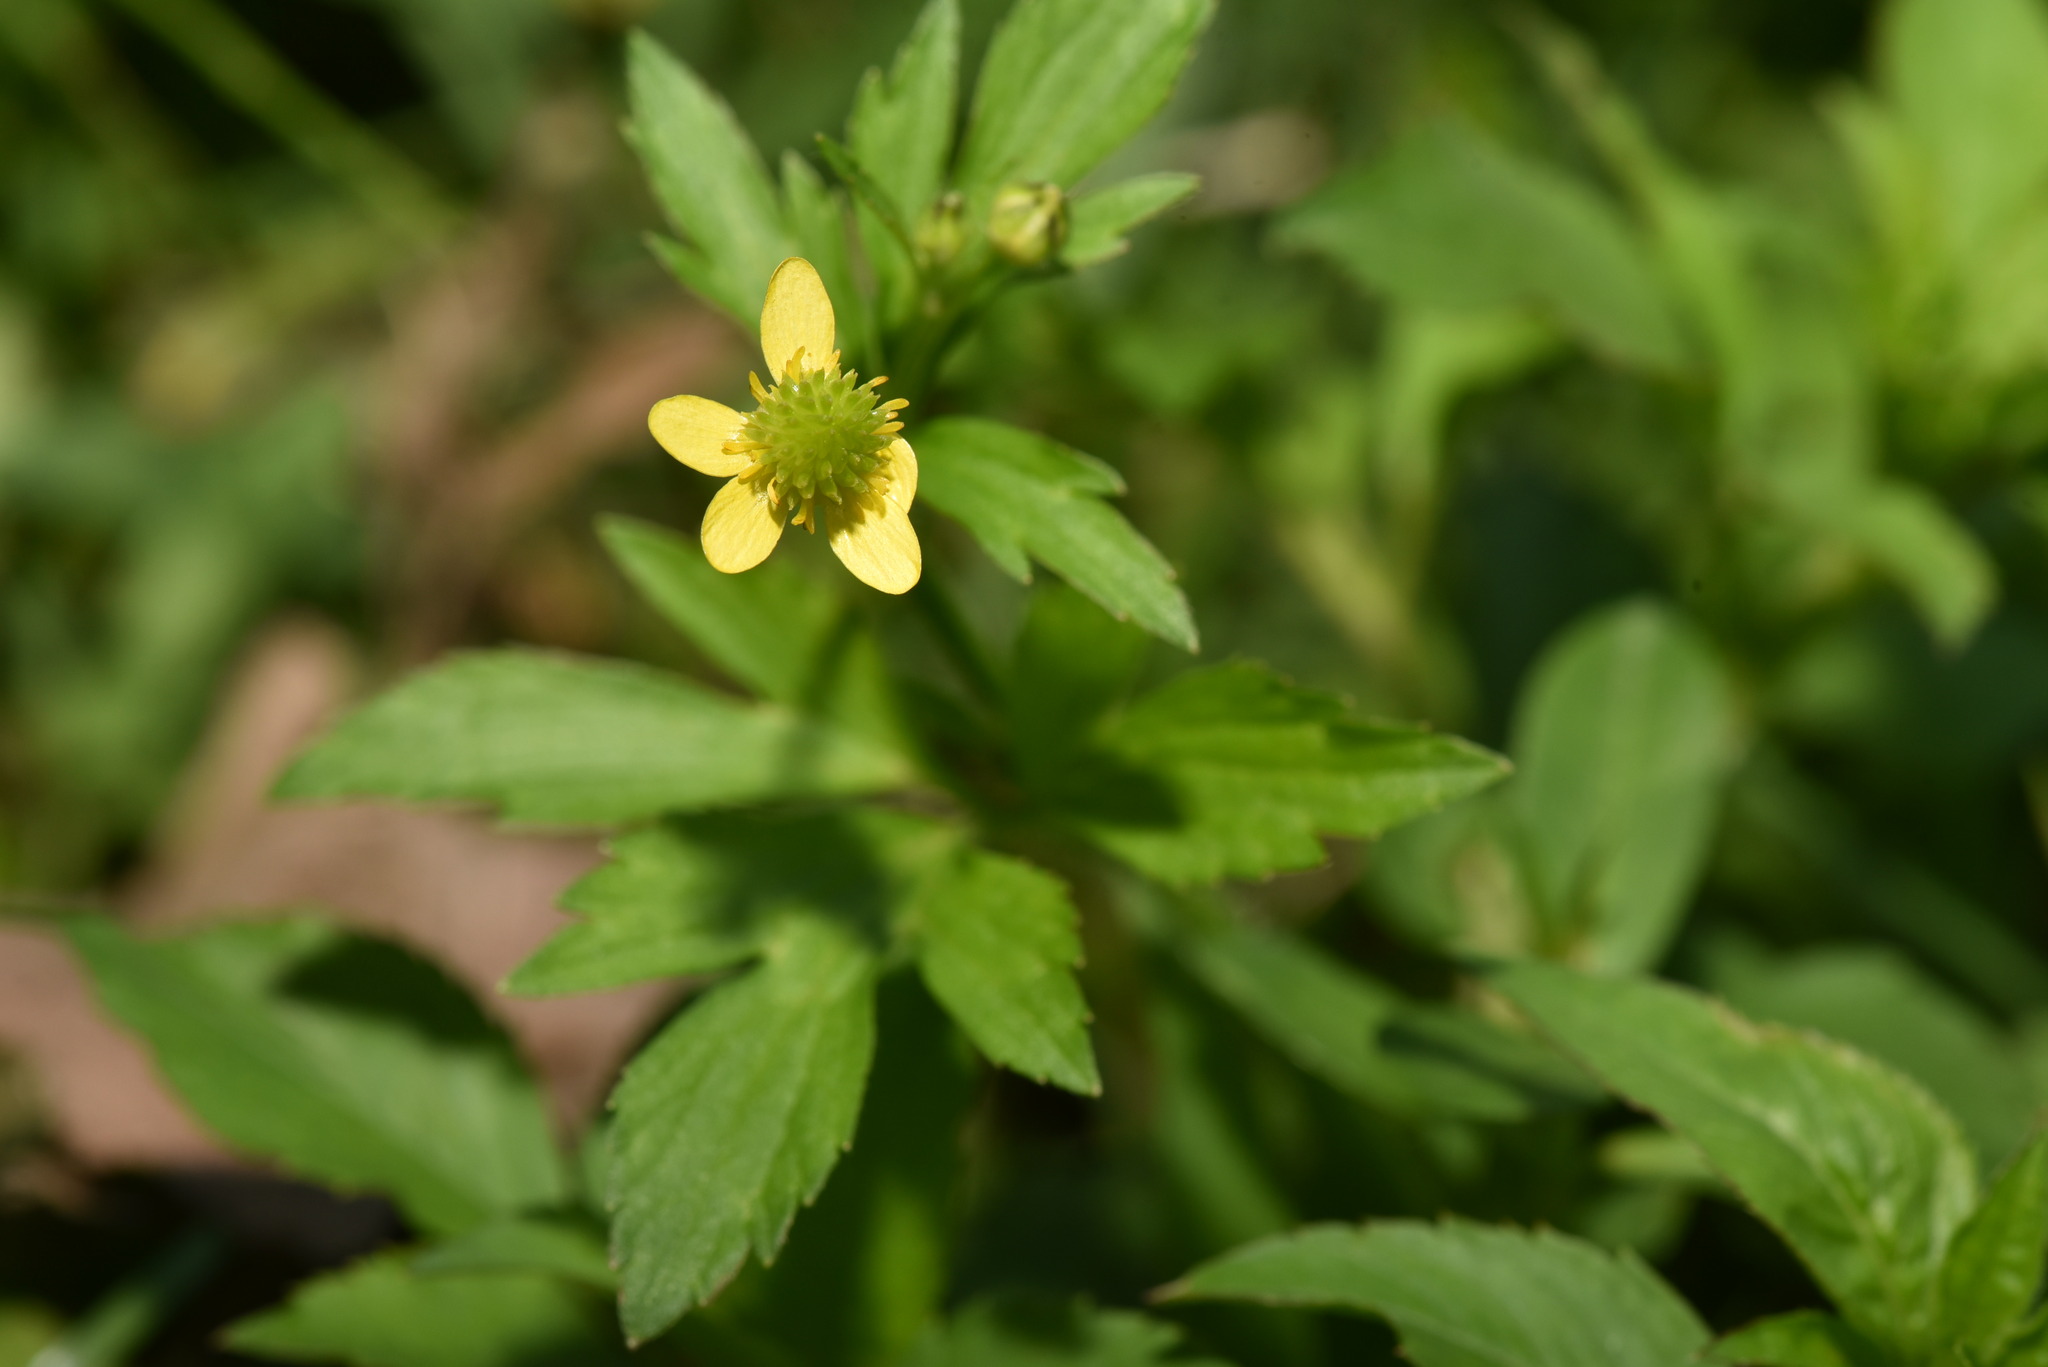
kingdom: Plantae
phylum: Tracheophyta
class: Magnoliopsida
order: Ranunculales
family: Ranunculaceae
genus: Ranunculus
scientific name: Ranunculus cantoniensis
